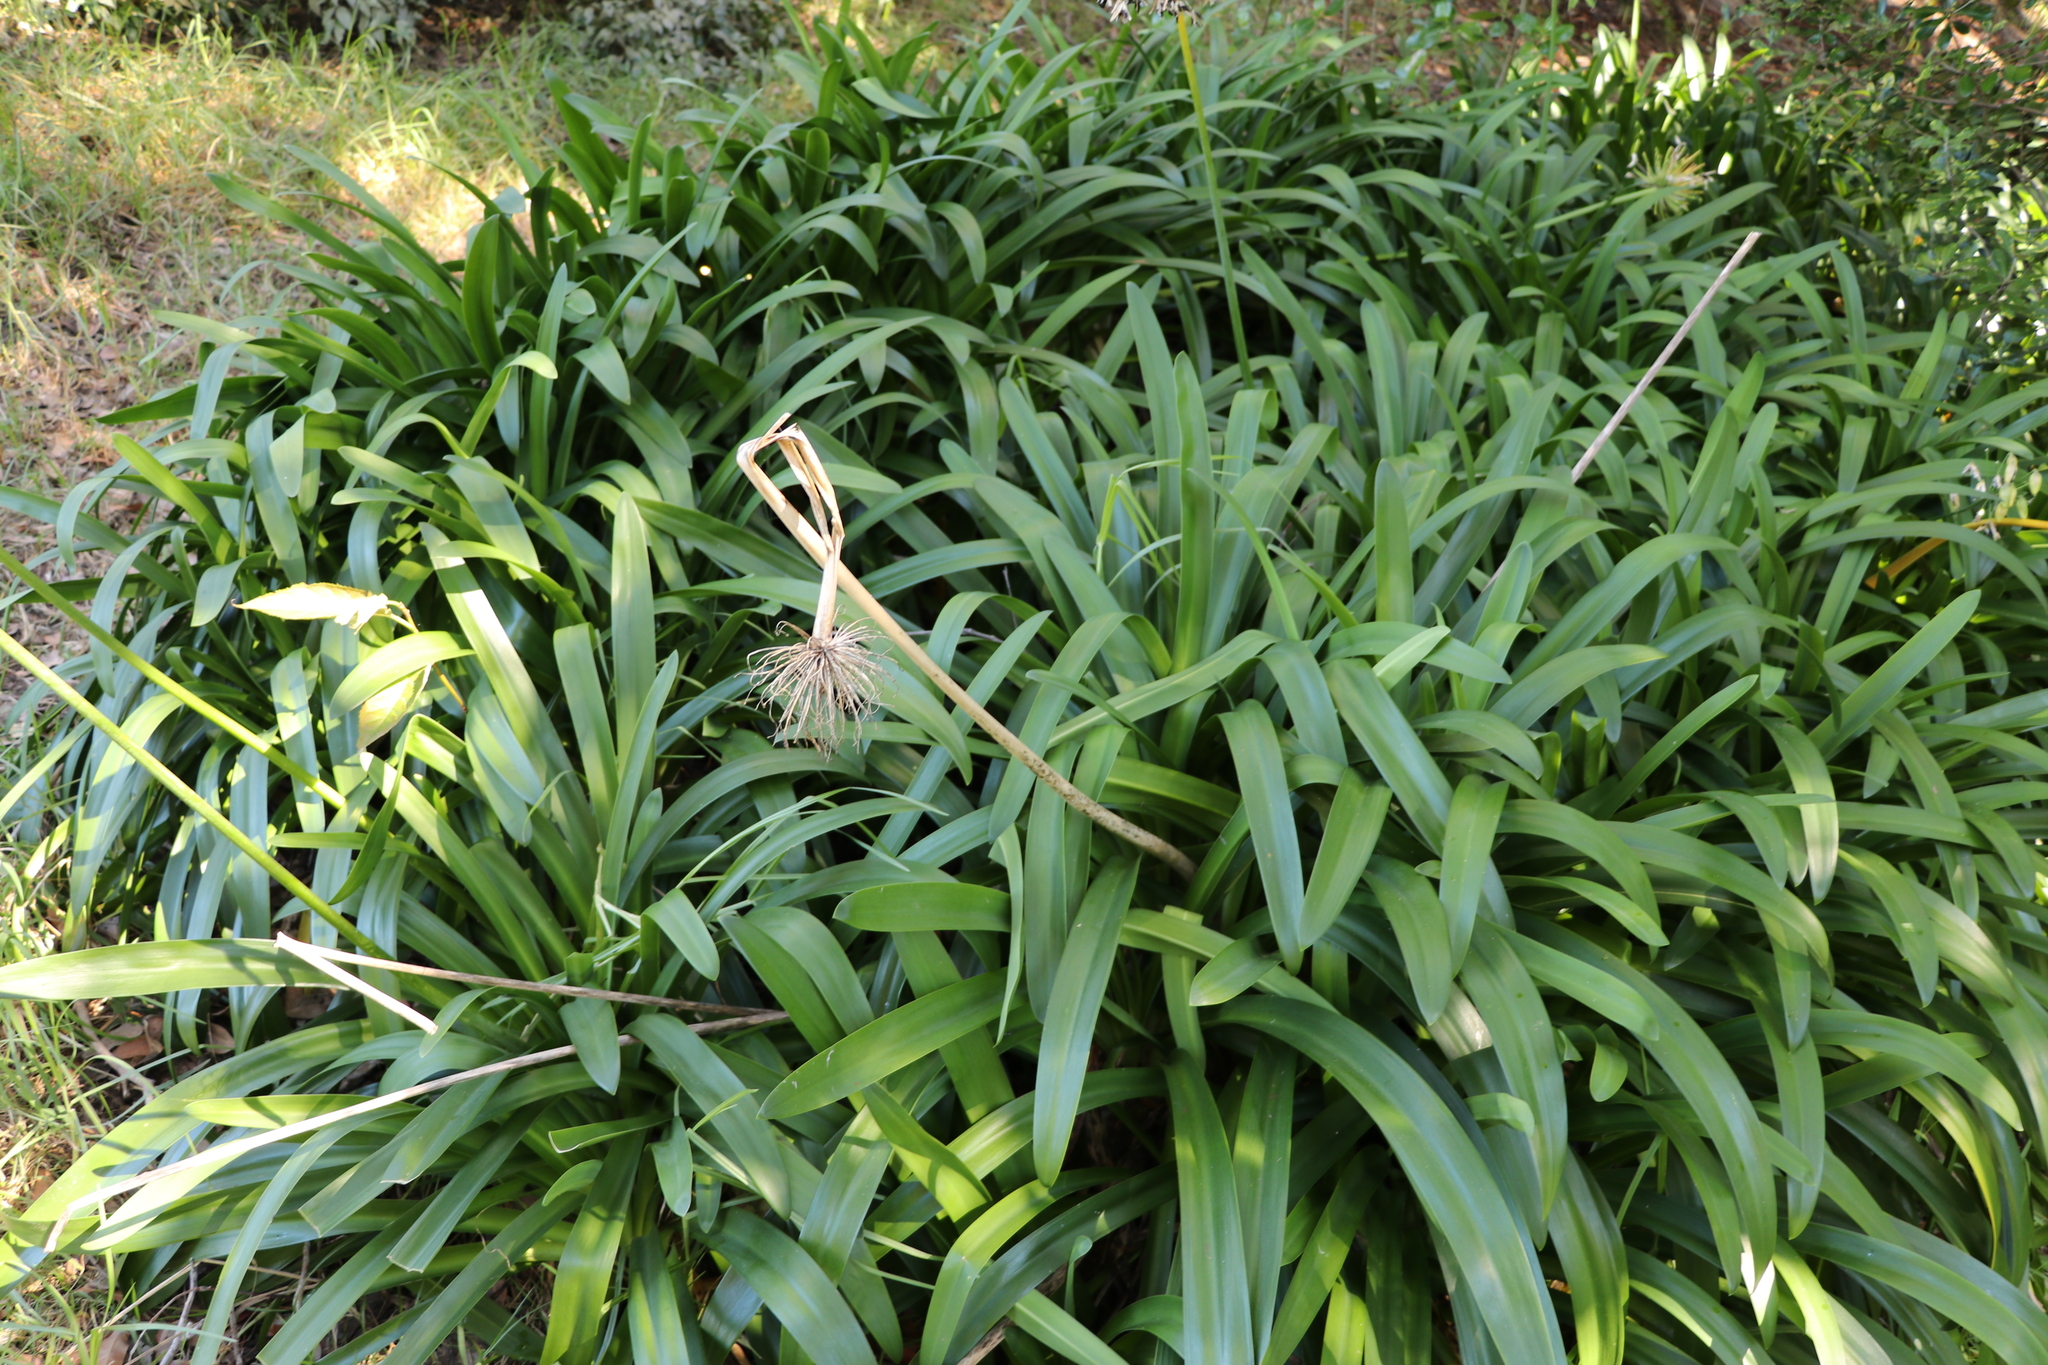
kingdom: Plantae
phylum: Tracheophyta
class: Liliopsida
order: Asparagales
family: Amaryllidaceae
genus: Agapanthus
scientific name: Agapanthus praecox
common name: African-lily
